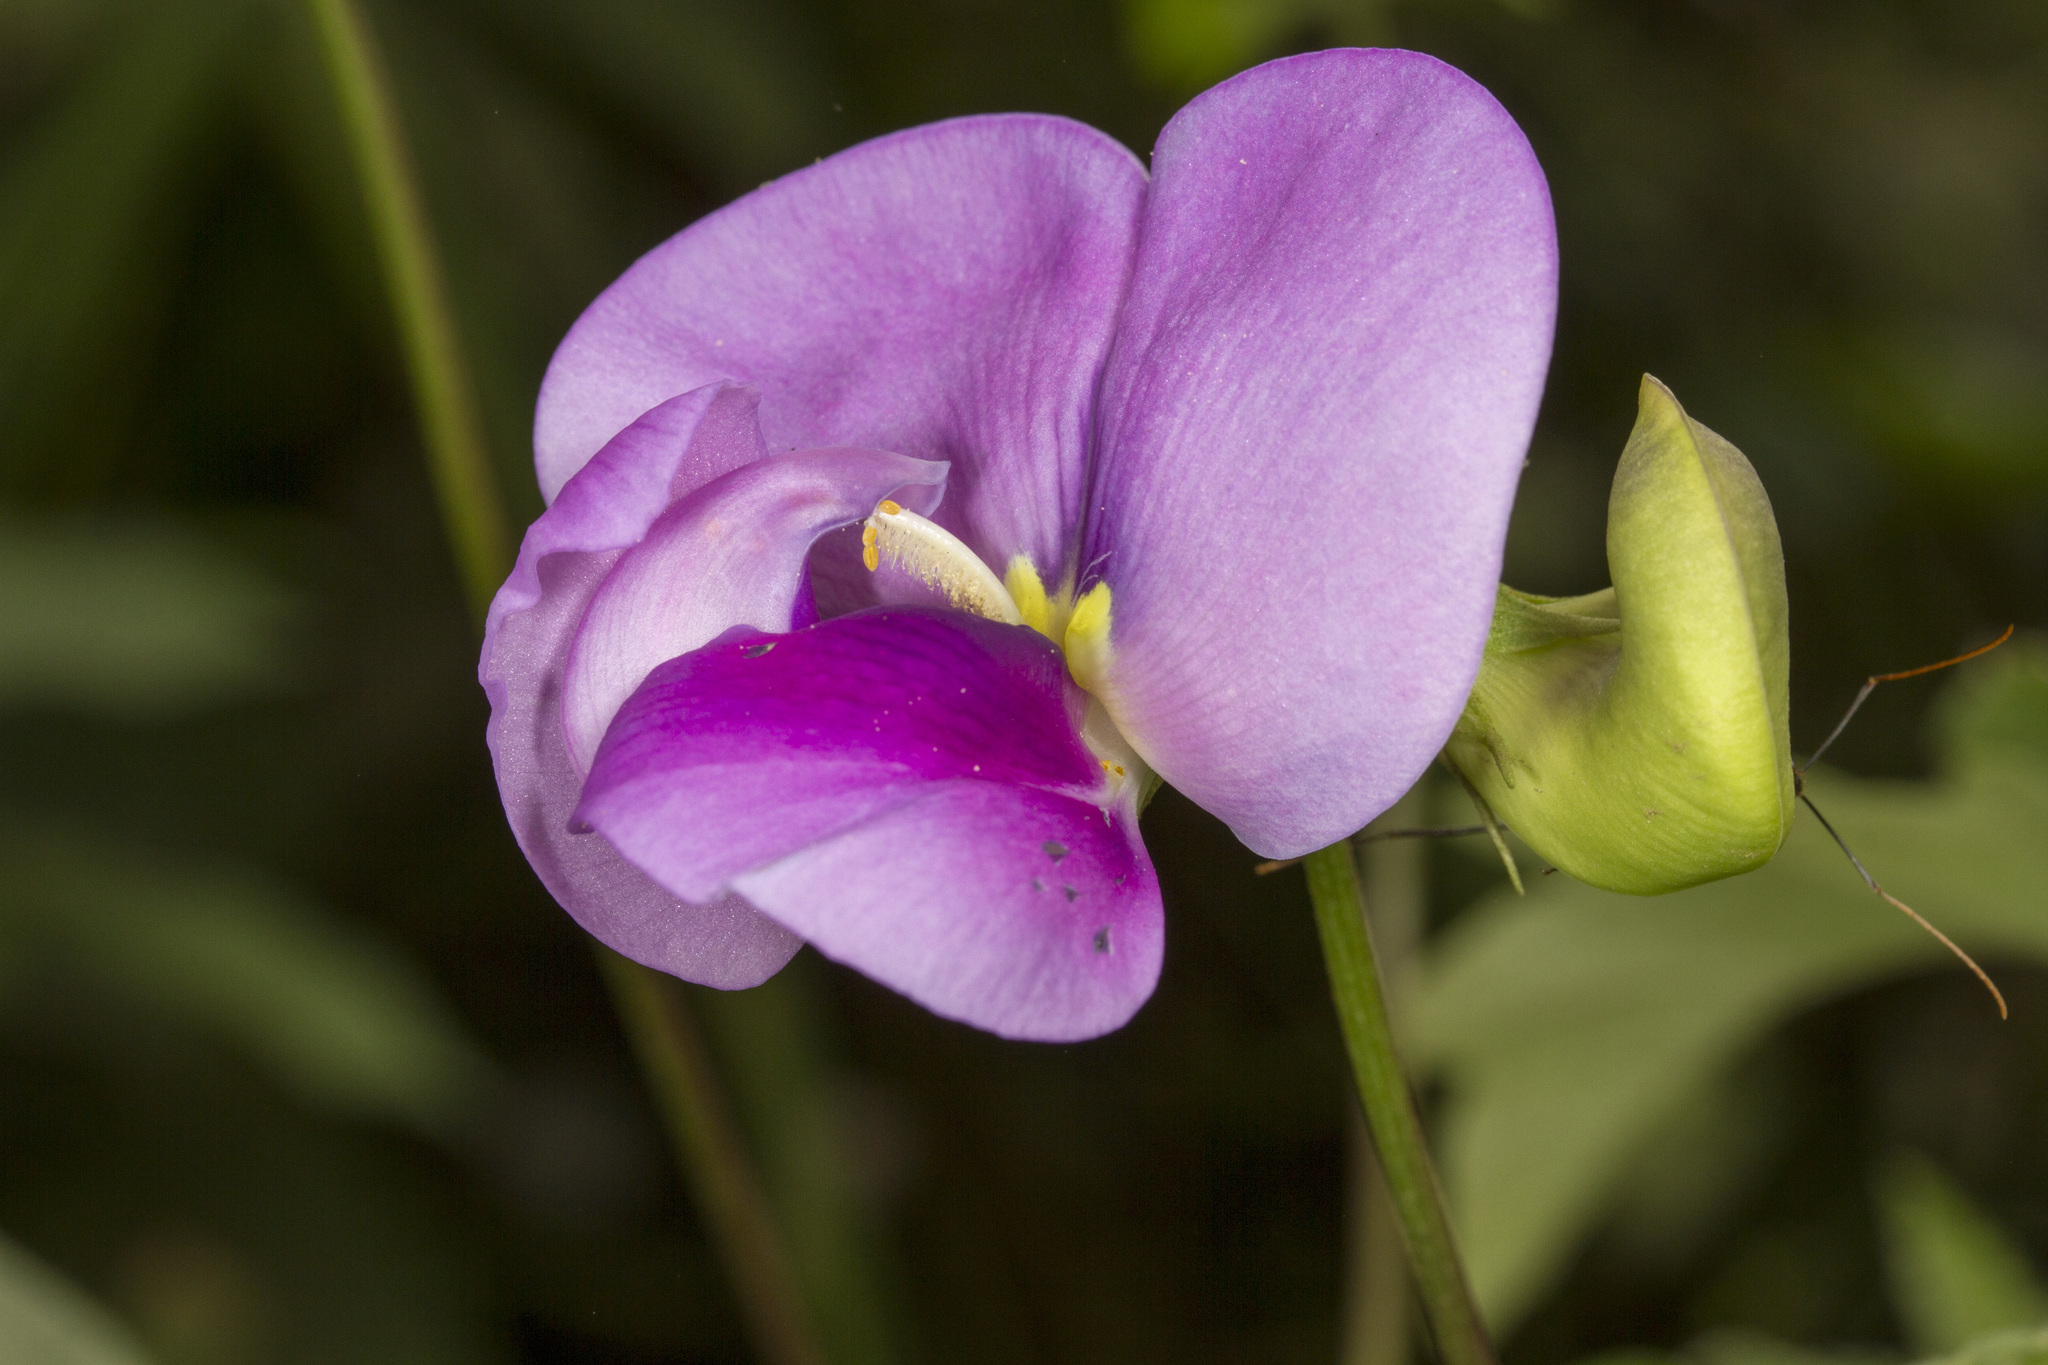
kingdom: Plantae
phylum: Tracheophyta
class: Magnoliopsida
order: Fabales
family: Fabaceae
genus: Vigna
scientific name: Vigna vexillata
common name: Zombi pea
